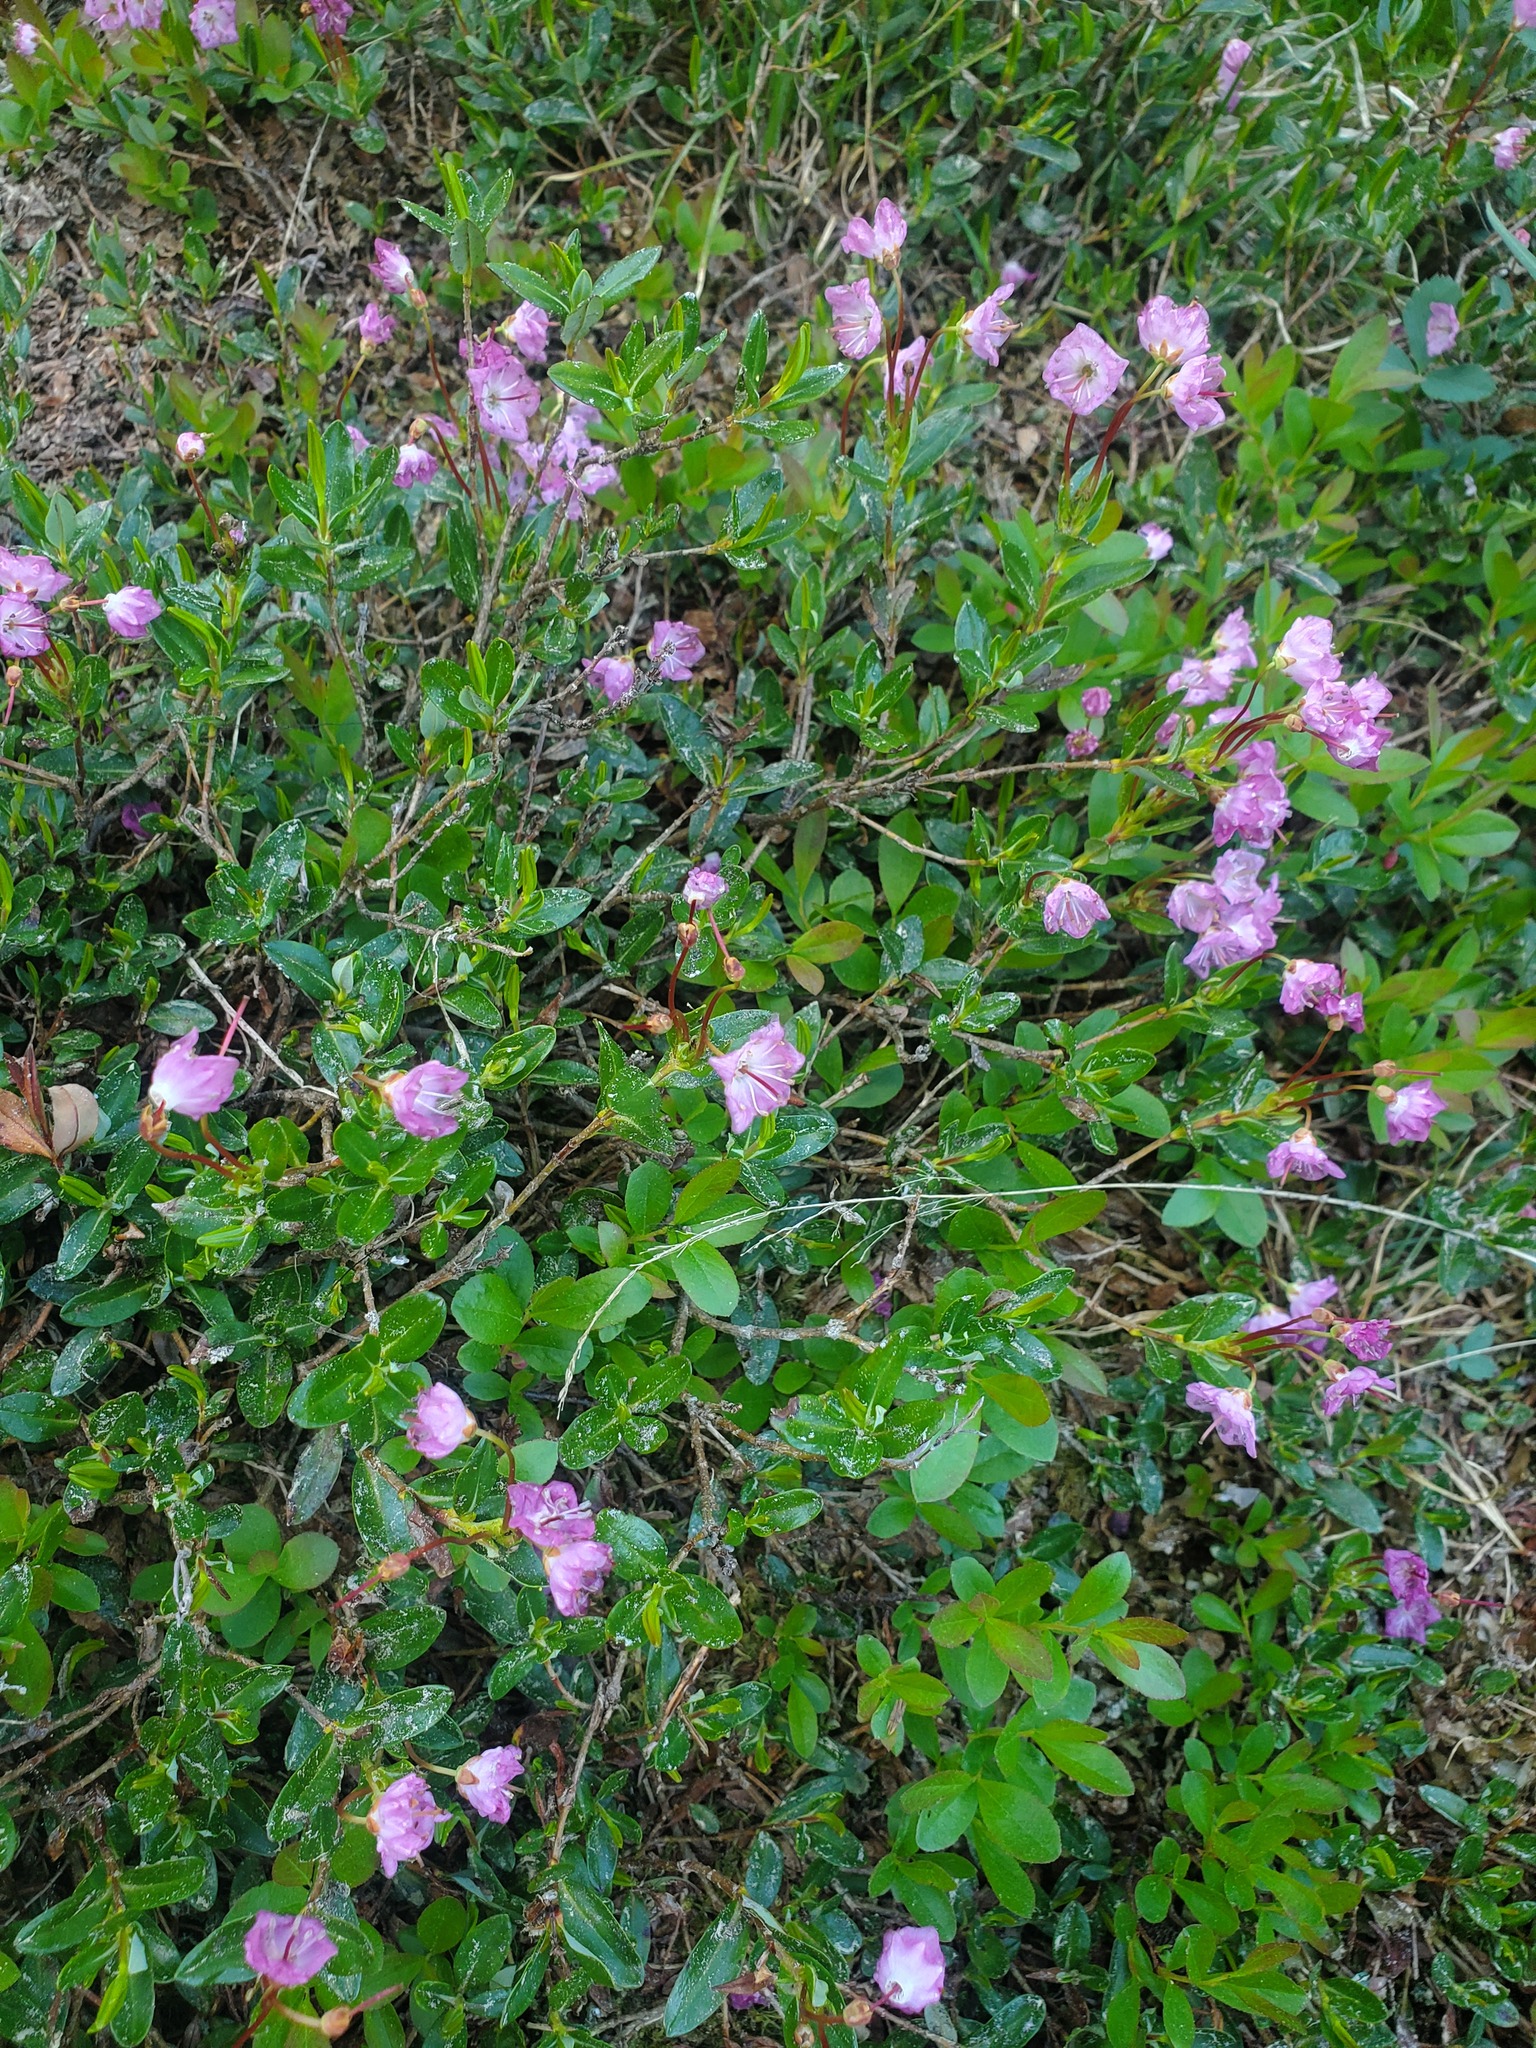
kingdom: Plantae
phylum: Tracheophyta
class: Magnoliopsida
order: Ericales
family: Ericaceae
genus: Kalmia
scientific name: Kalmia microphylla
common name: Alpine bog laurel
